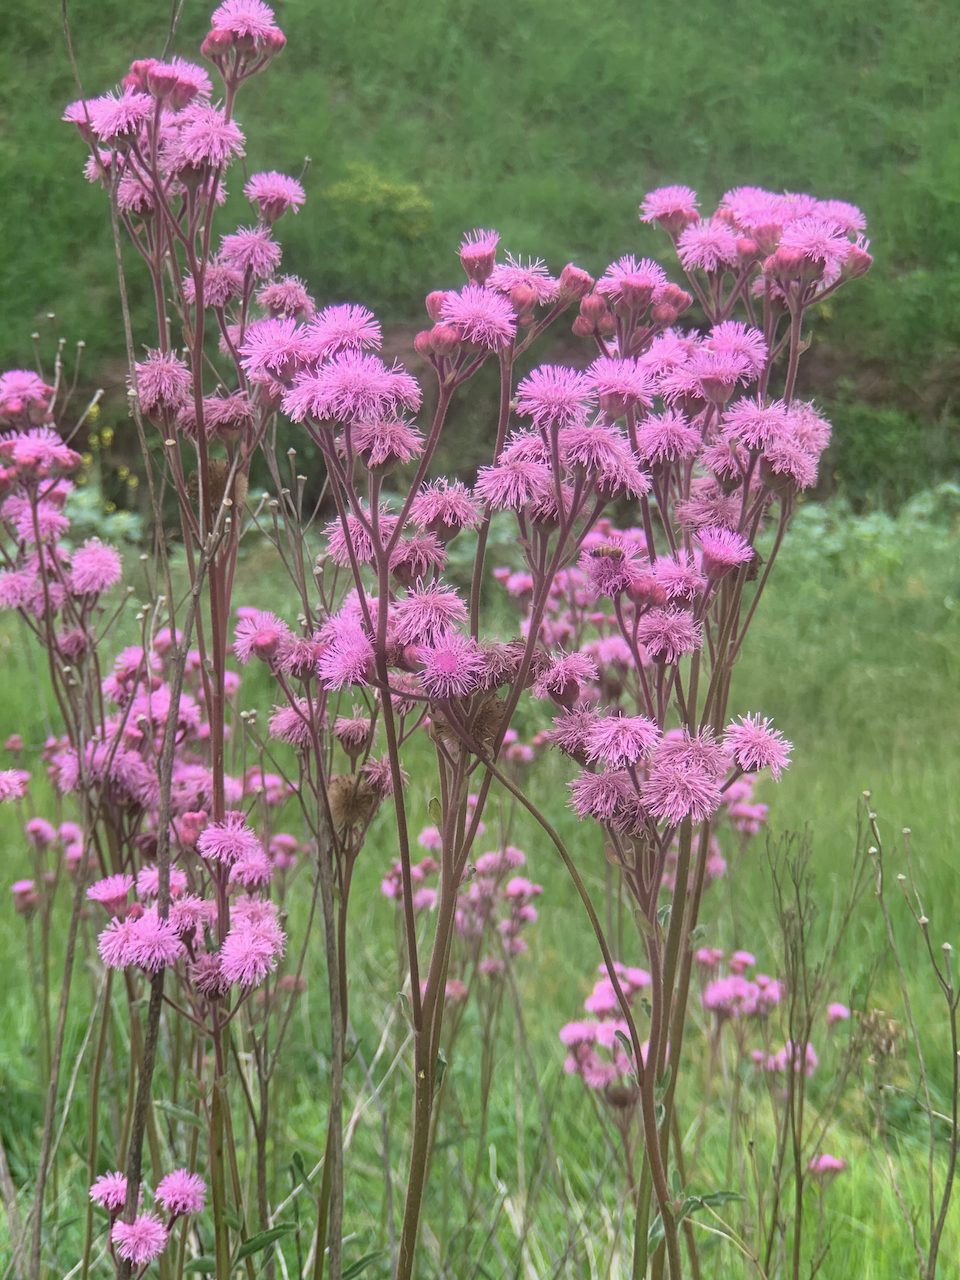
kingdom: Plantae
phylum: Tracheophyta
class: Magnoliopsida
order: Asterales
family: Asteraceae
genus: Campuloclinium
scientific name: Campuloclinium macrocephalum
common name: Pompomweed
